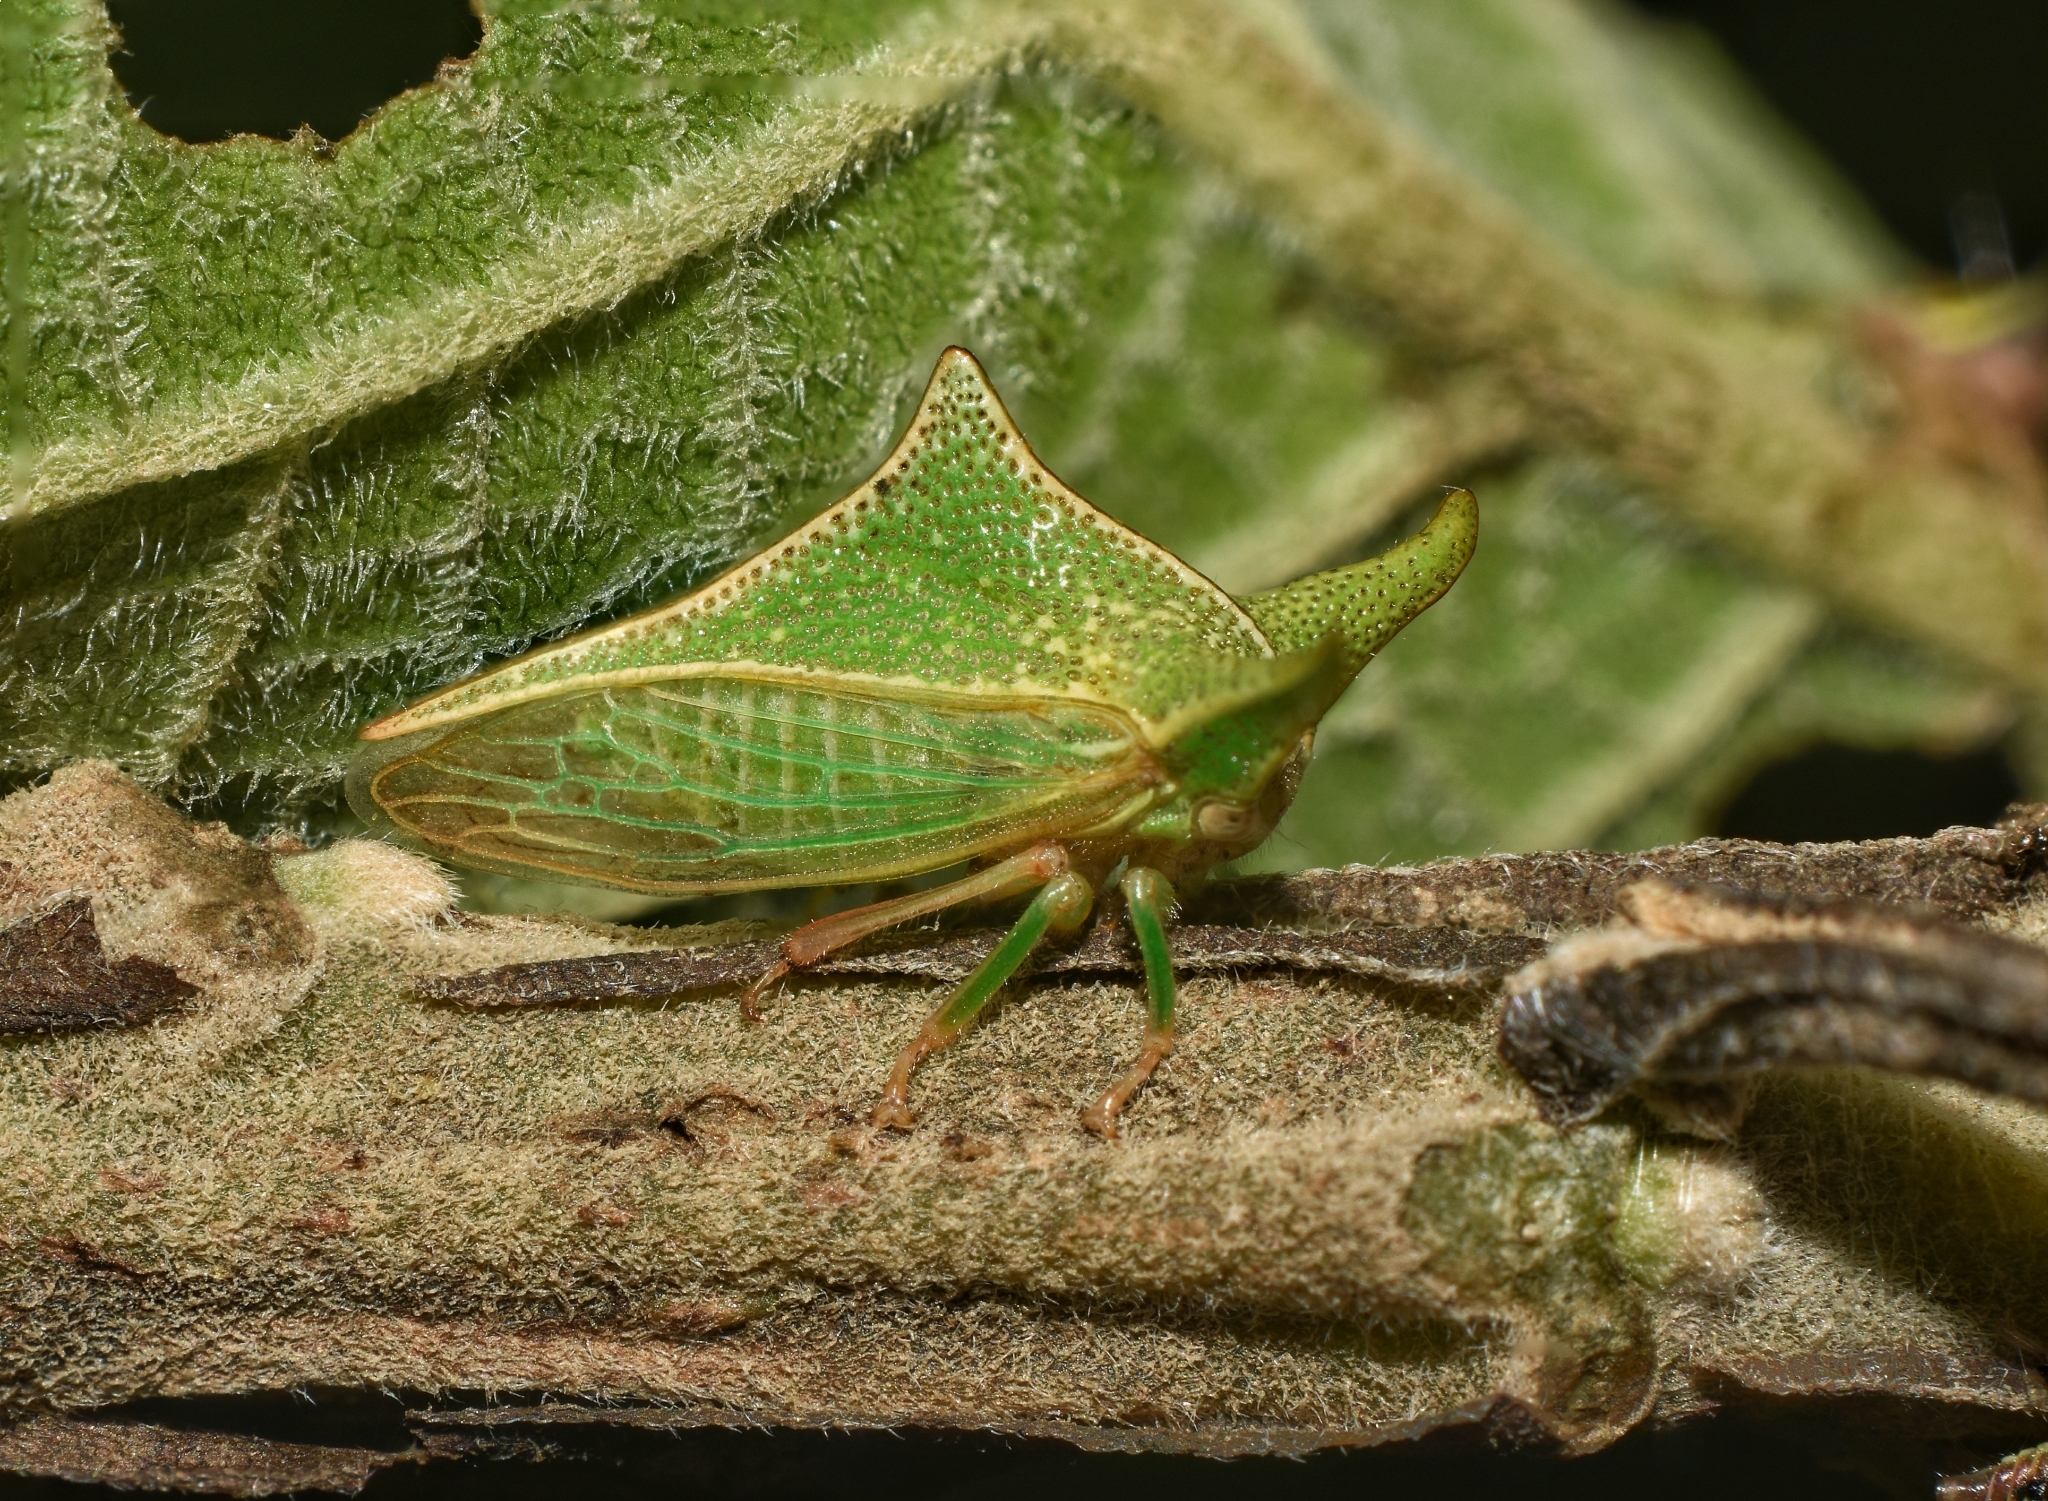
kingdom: Animalia
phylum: Arthropoda
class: Insecta
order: Hemiptera
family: Membracidae
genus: Alchisme
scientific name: Alchisme bos
